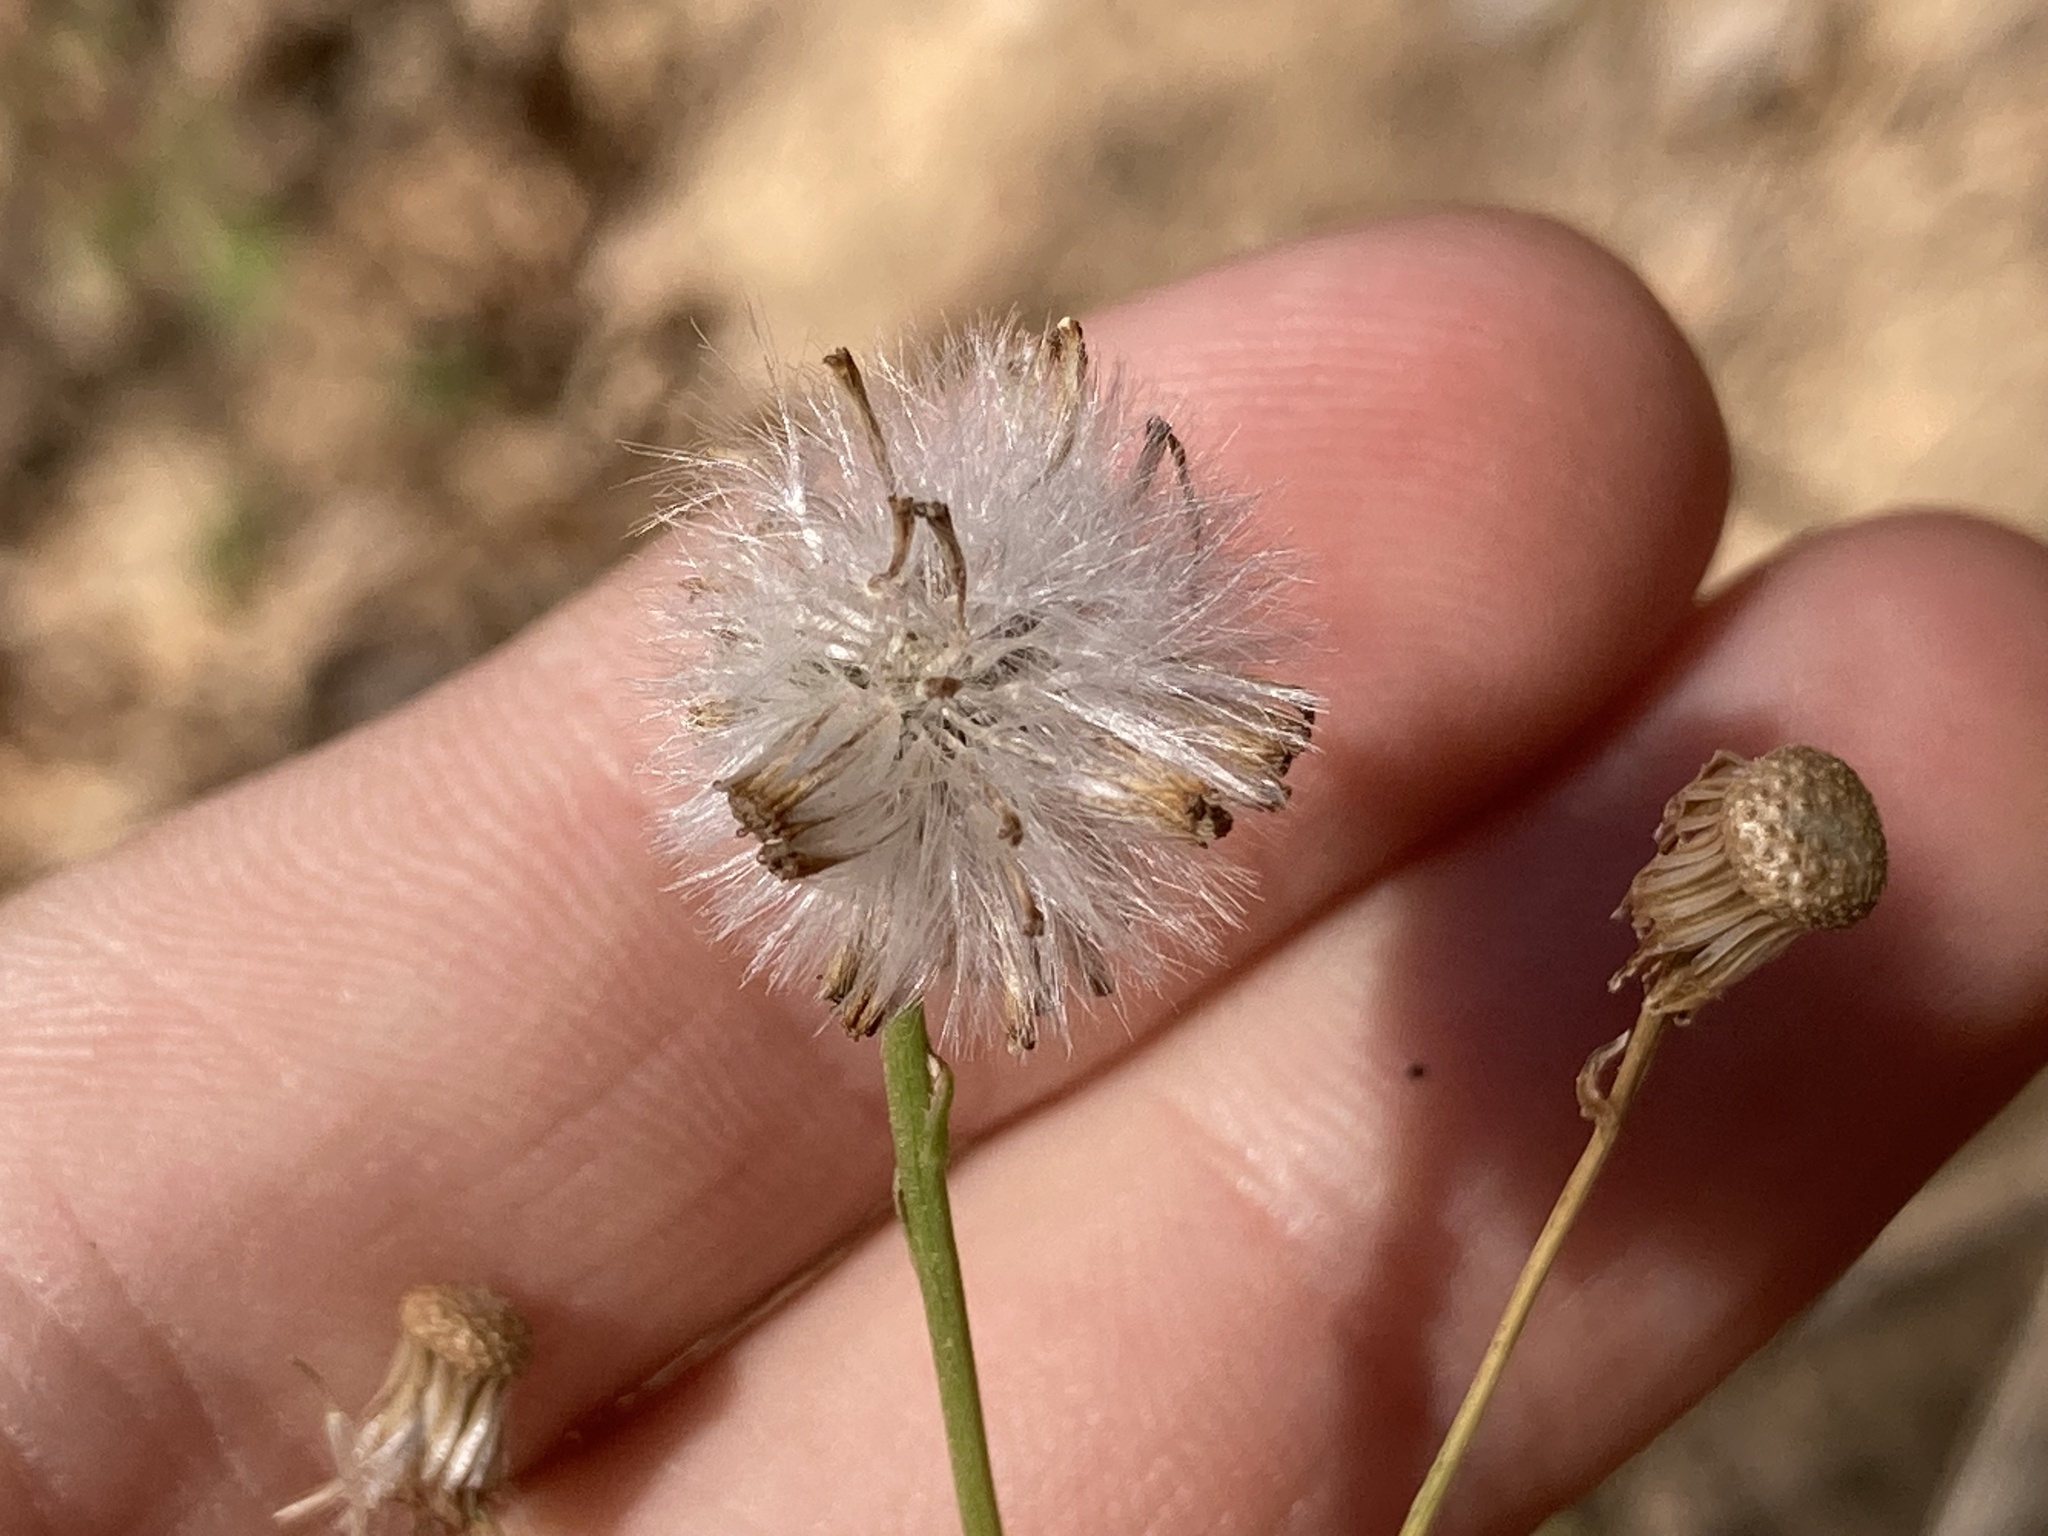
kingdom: Plantae
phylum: Tracheophyta
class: Magnoliopsida
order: Asterales
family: Asteraceae
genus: Senecio
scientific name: Senecio inaequidens
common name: Narrow-leaved ragwort
